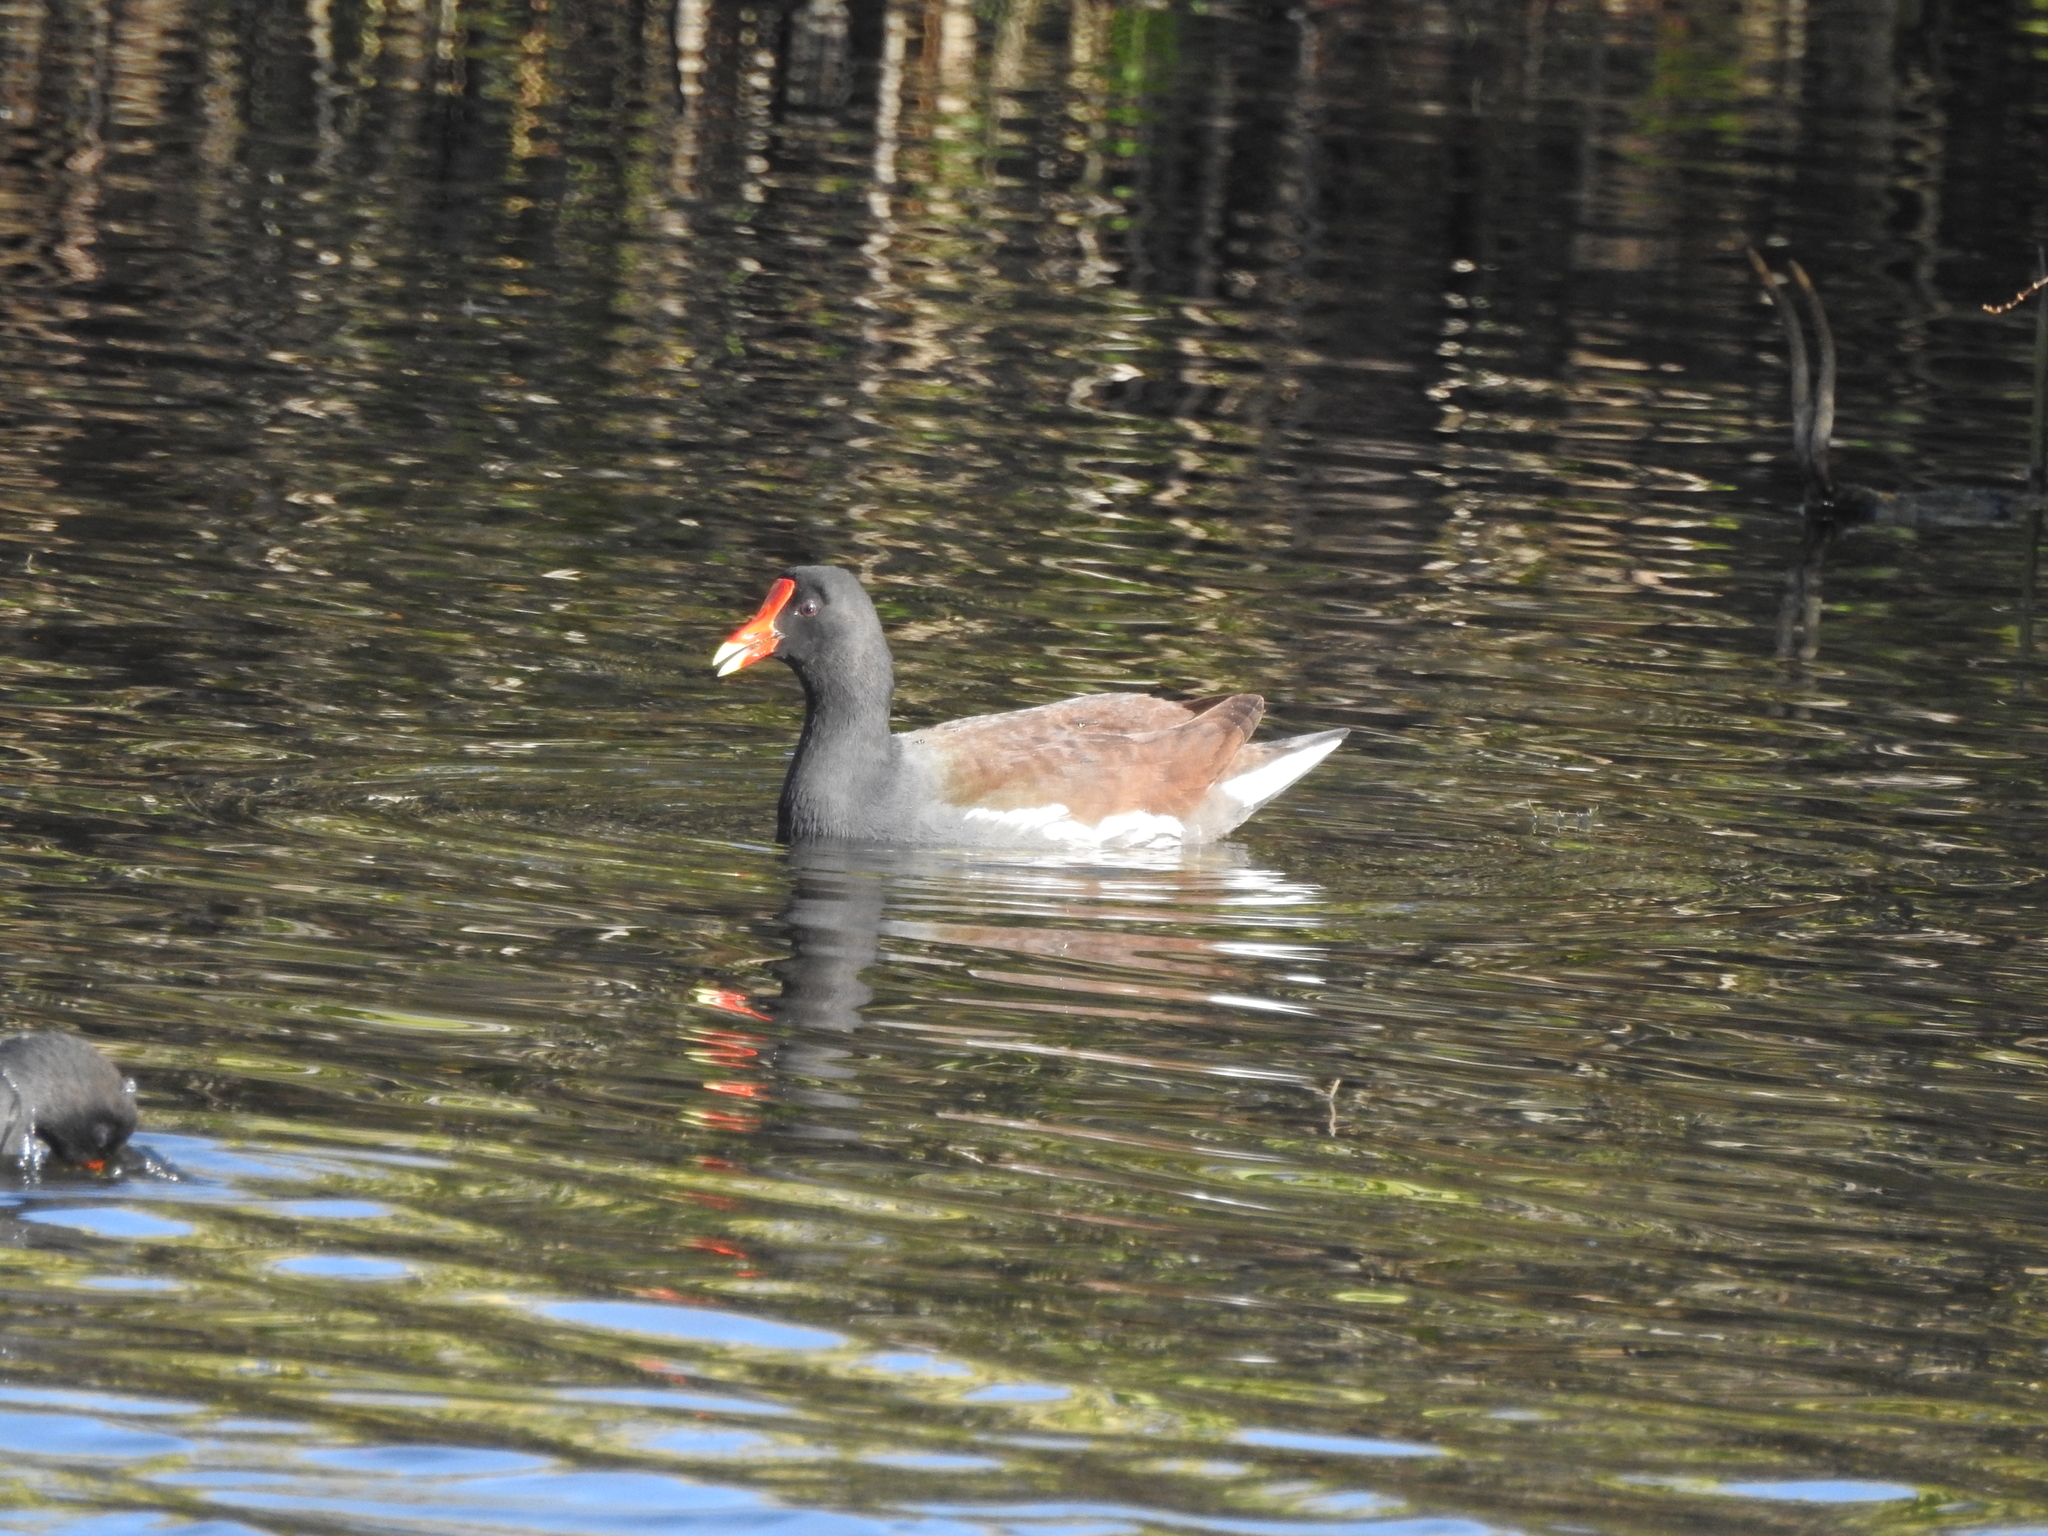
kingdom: Animalia
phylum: Chordata
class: Aves
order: Gruiformes
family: Rallidae
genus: Gallinula
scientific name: Gallinula chloropus
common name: Common moorhen
